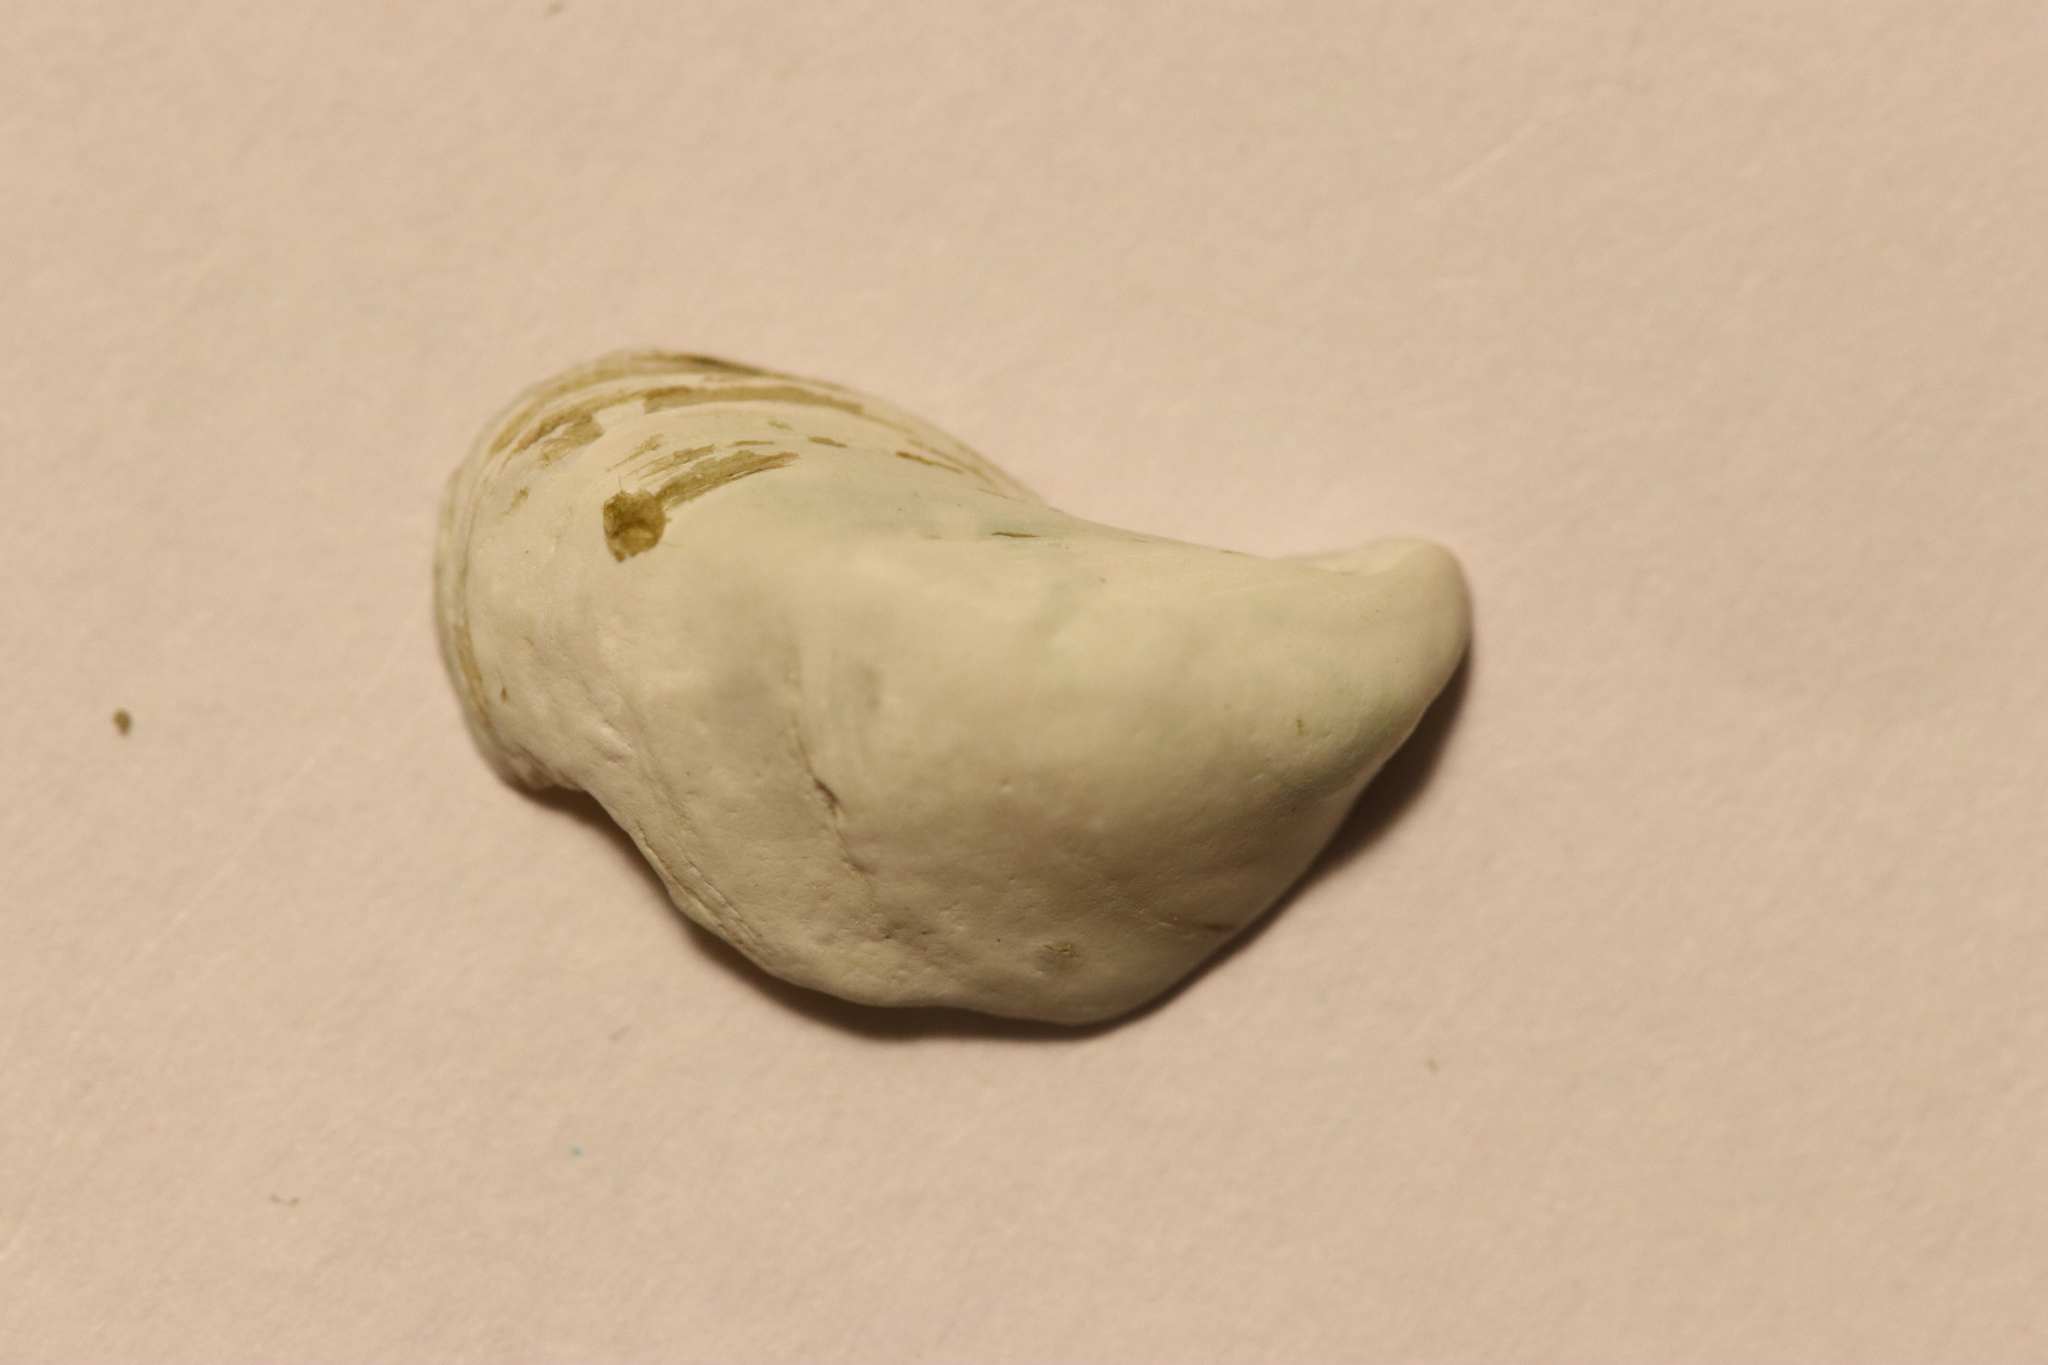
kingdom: Animalia
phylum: Mollusca
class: Bivalvia
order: Myida
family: Dreissenidae
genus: Dreissena
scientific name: Dreissena bugensis
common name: Quagga mussel
